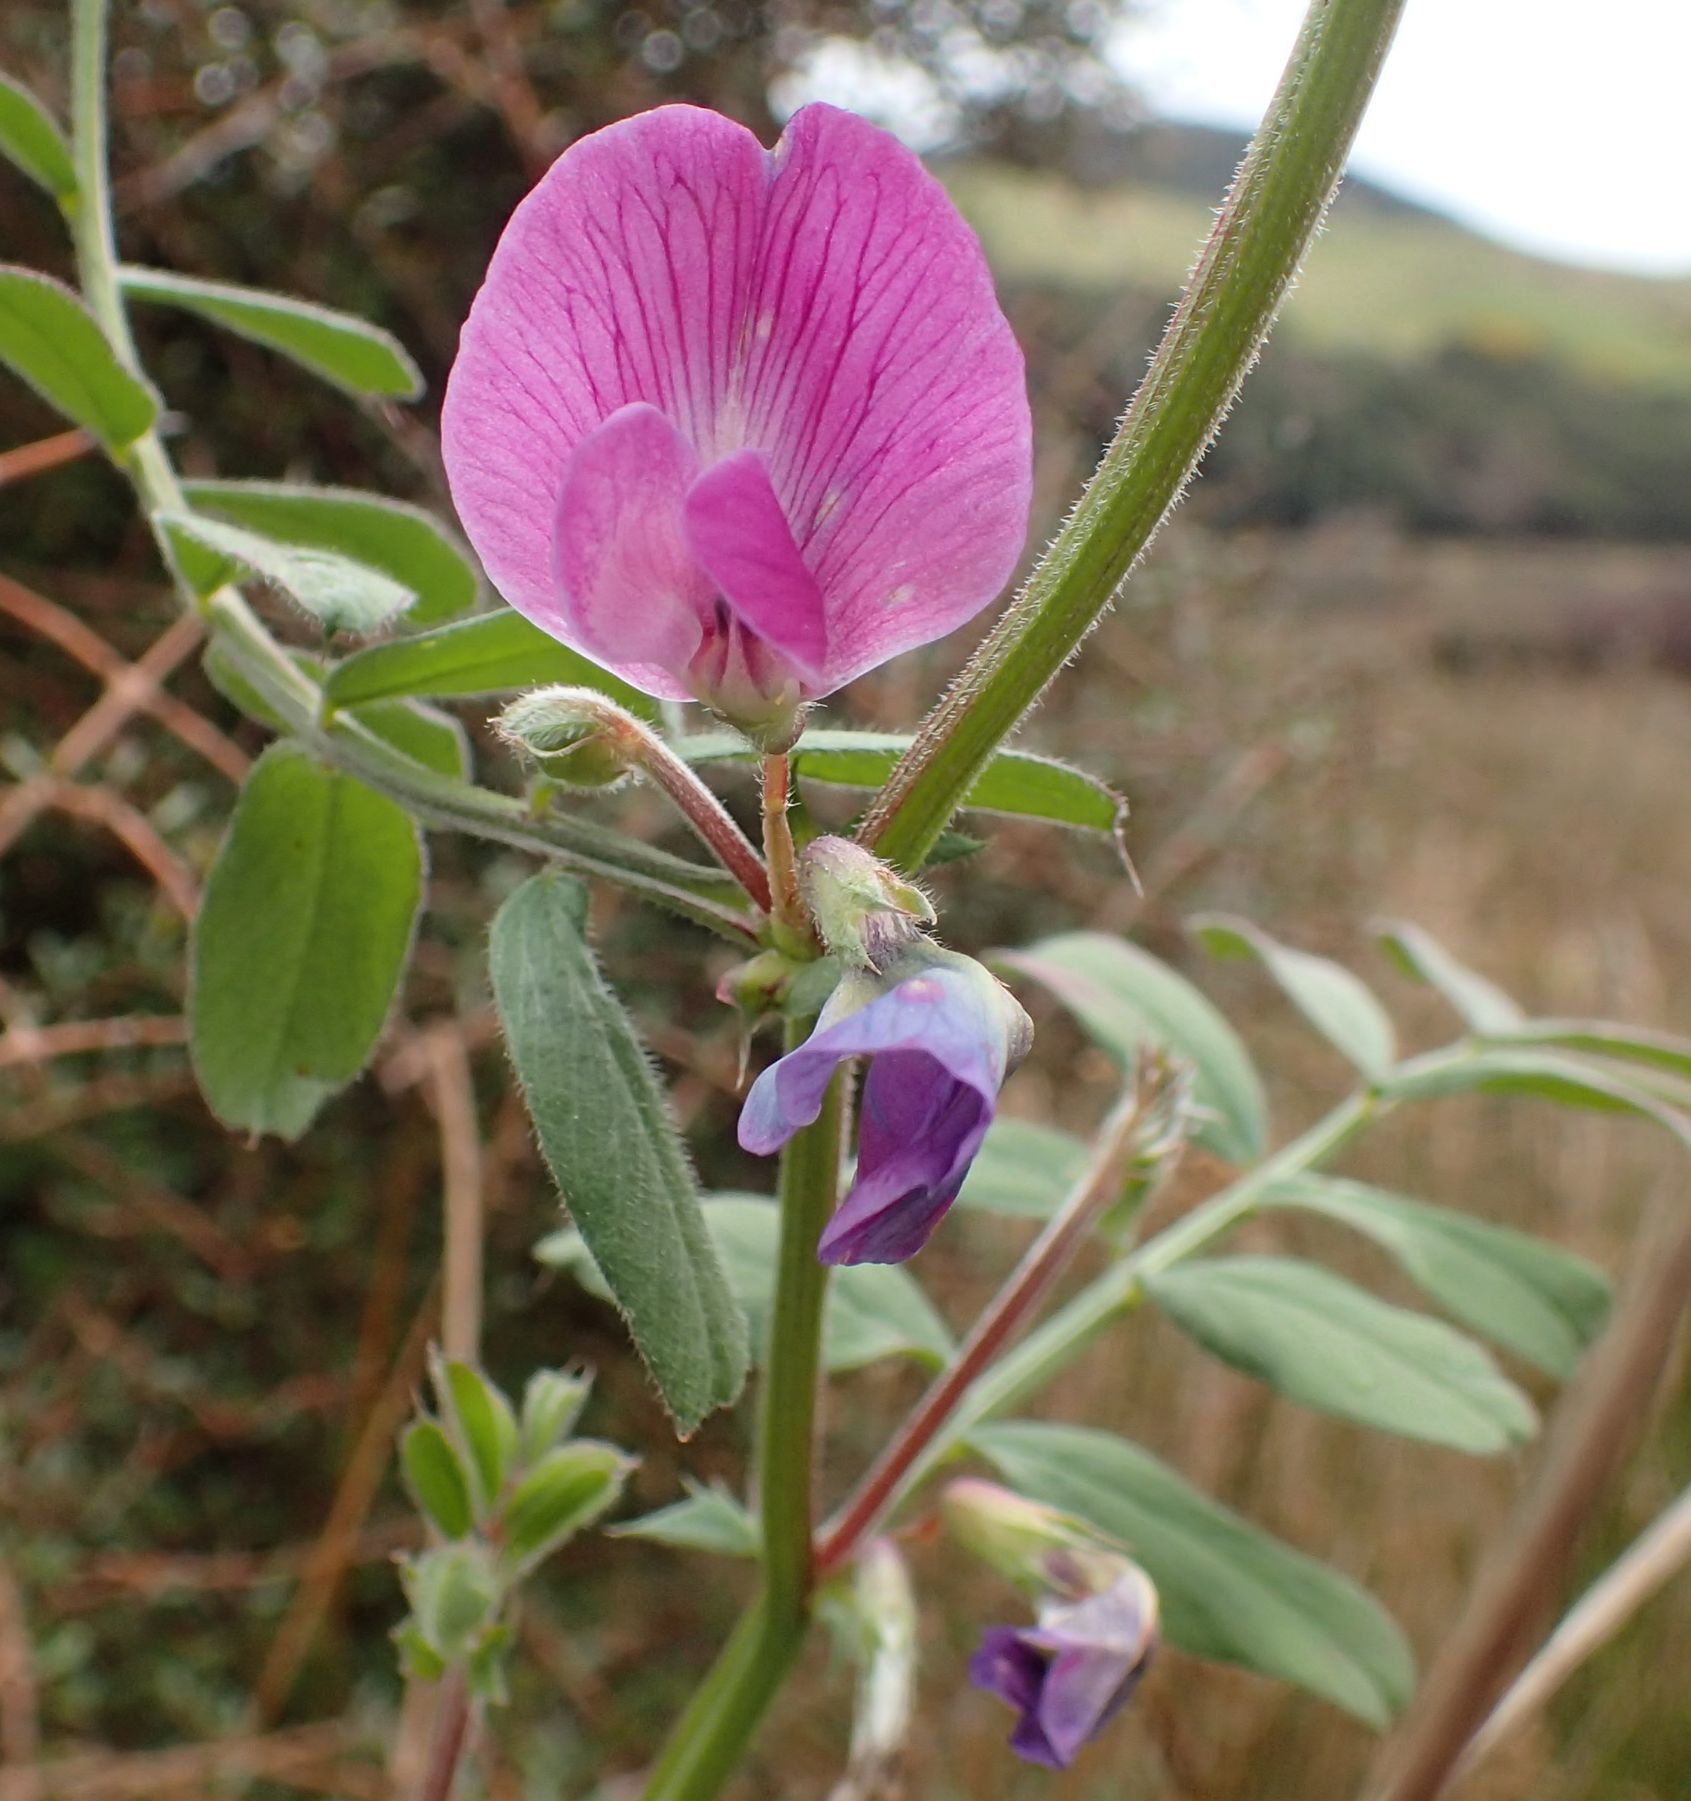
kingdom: Plantae
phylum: Tracheophyta
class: Magnoliopsida
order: Fabales
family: Fabaceae
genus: Vicia
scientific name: Vicia sativa
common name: Garden vetch
